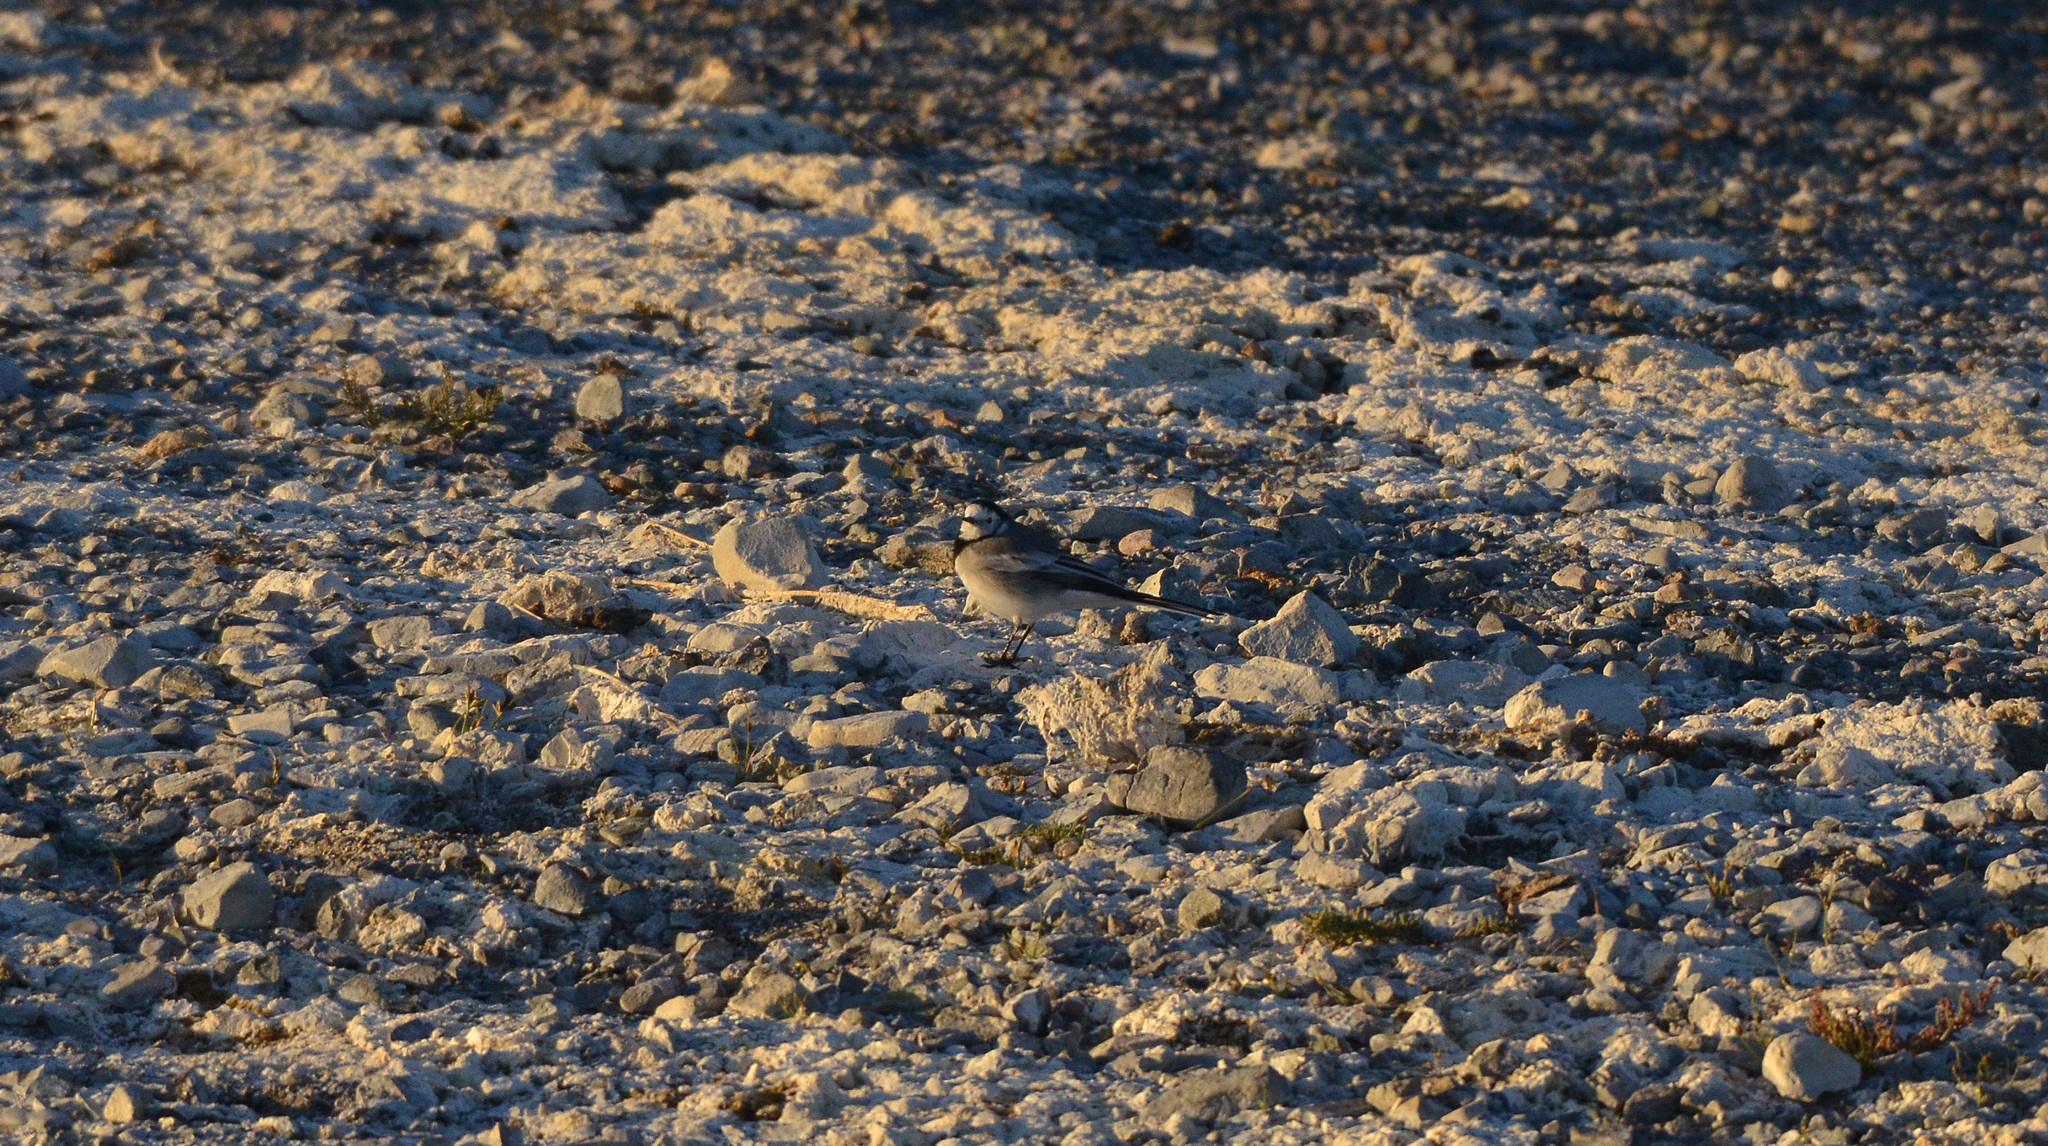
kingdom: Animalia
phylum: Chordata
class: Aves
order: Passeriformes
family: Motacillidae
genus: Motacilla
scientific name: Motacilla alba
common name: White wagtail
